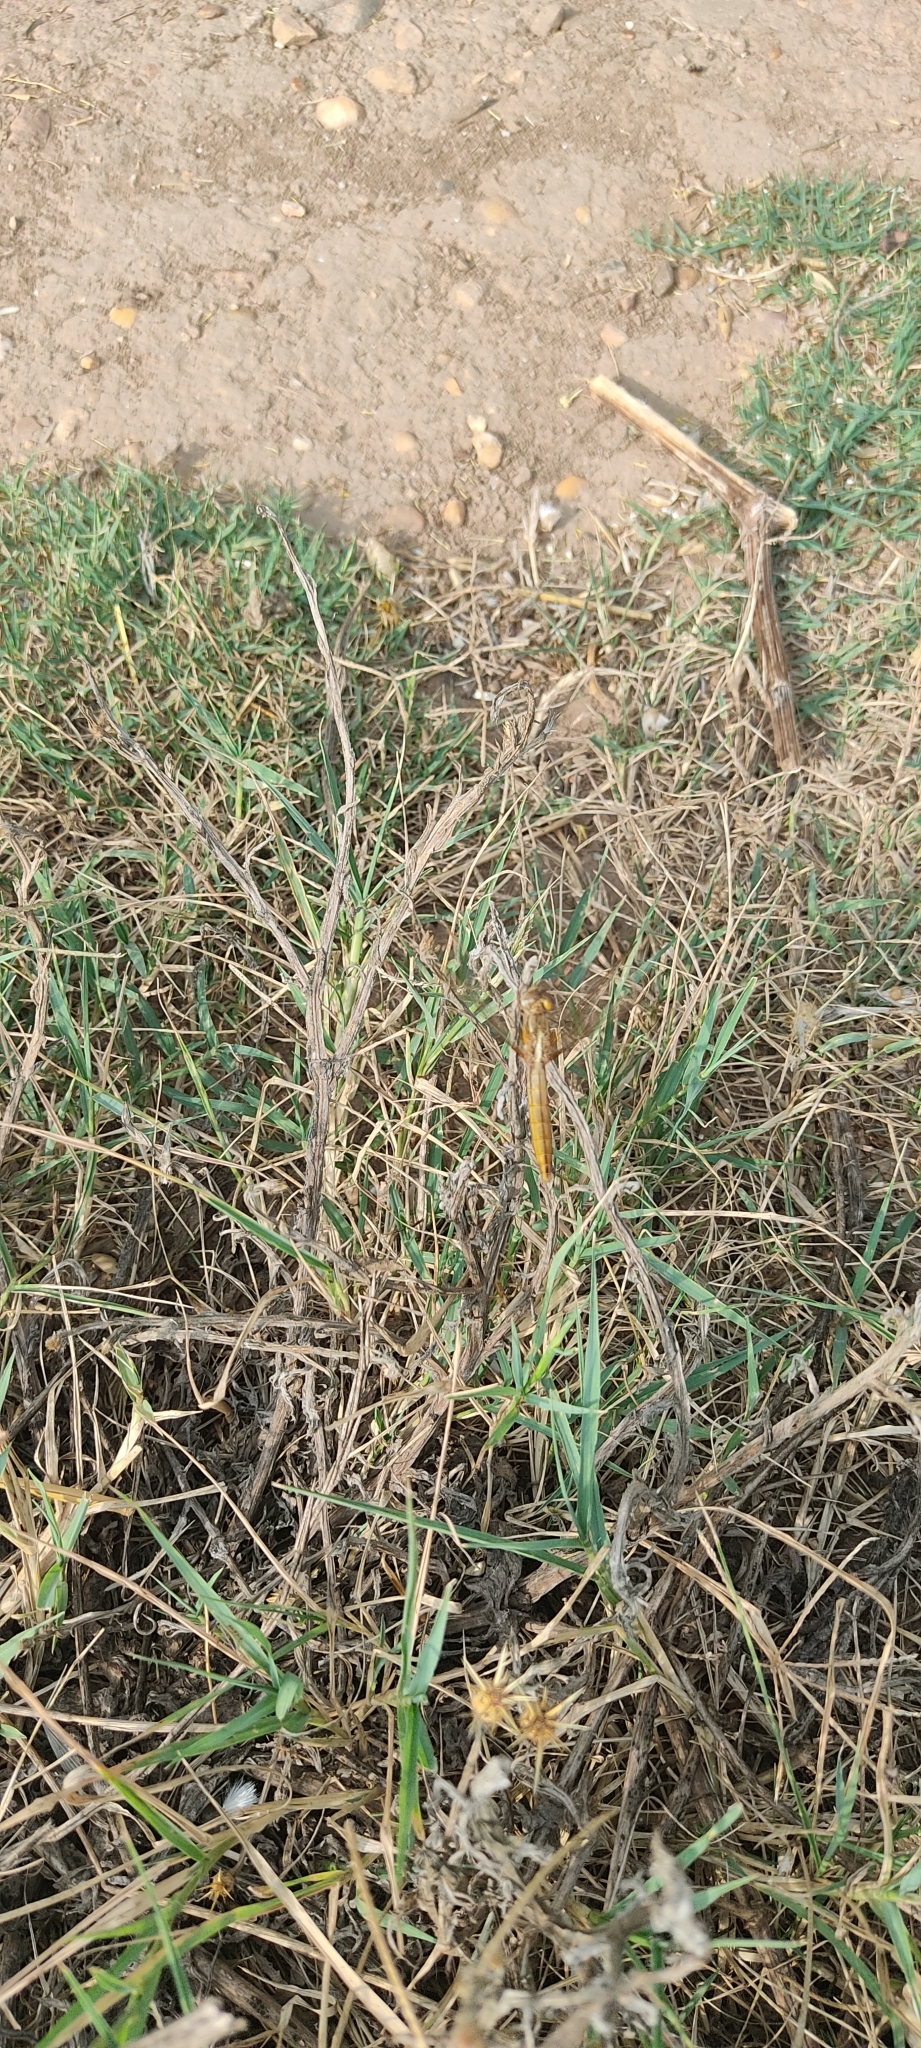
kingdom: Animalia
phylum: Arthropoda
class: Insecta
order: Odonata
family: Libellulidae
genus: Crocothemis
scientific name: Crocothemis erythraea
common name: Scarlet dragonfly
